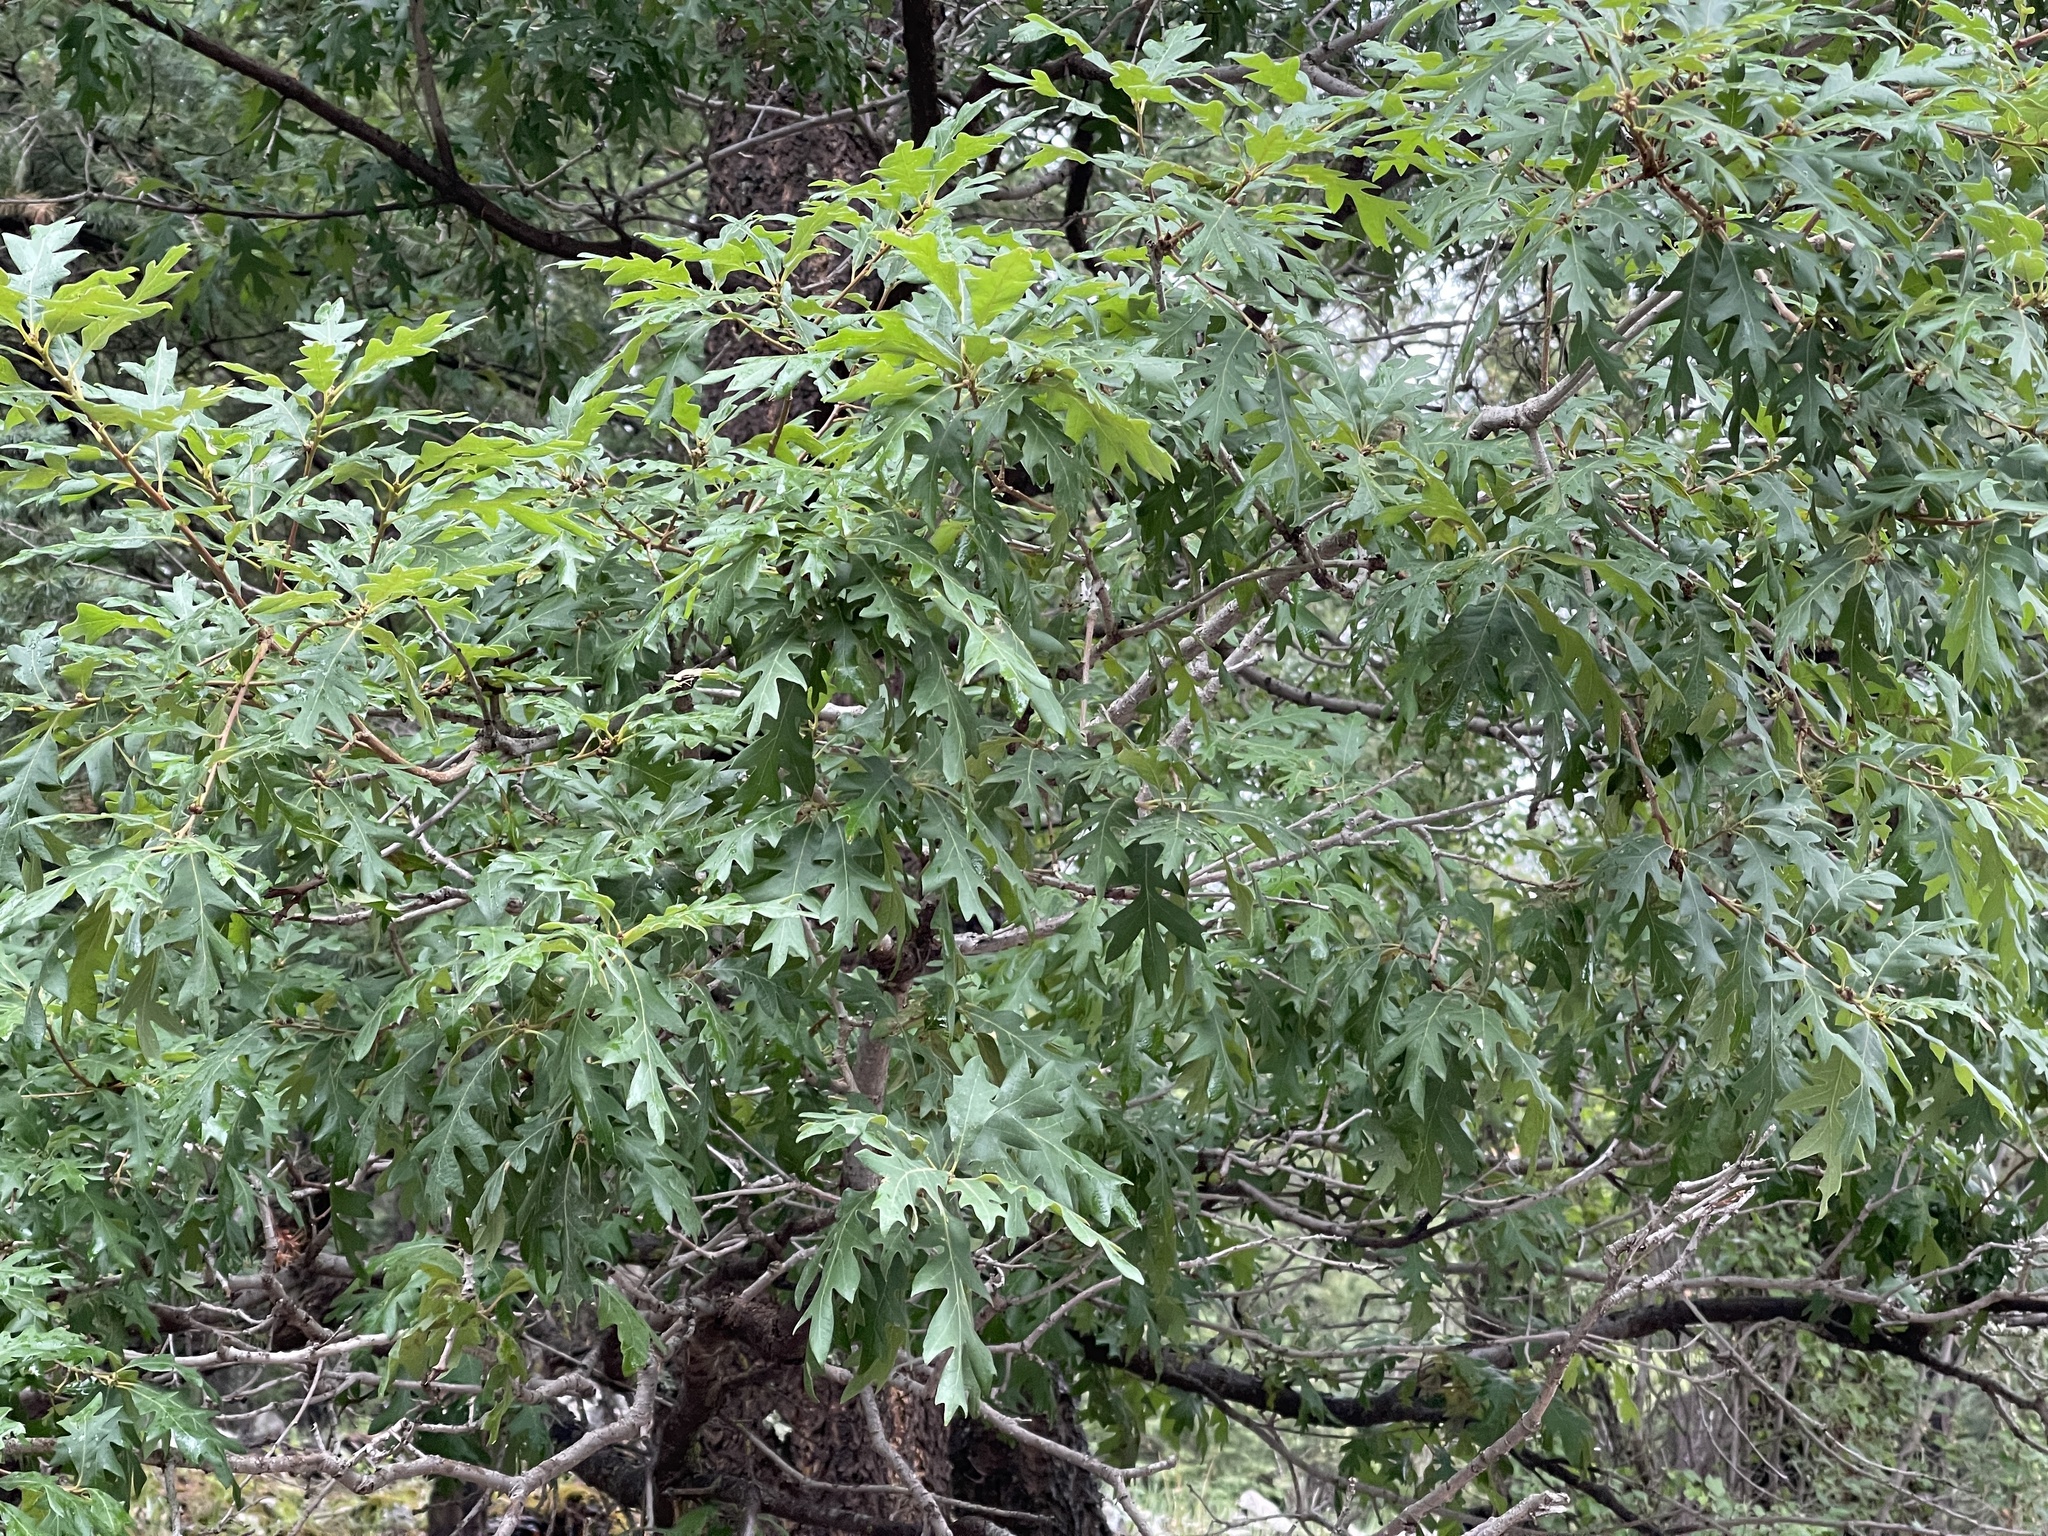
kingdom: Plantae
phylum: Tracheophyta
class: Magnoliopsida
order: Fagales
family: Fagaceae
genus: Quercus
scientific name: Quercus gambelii
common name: Gambel oak
